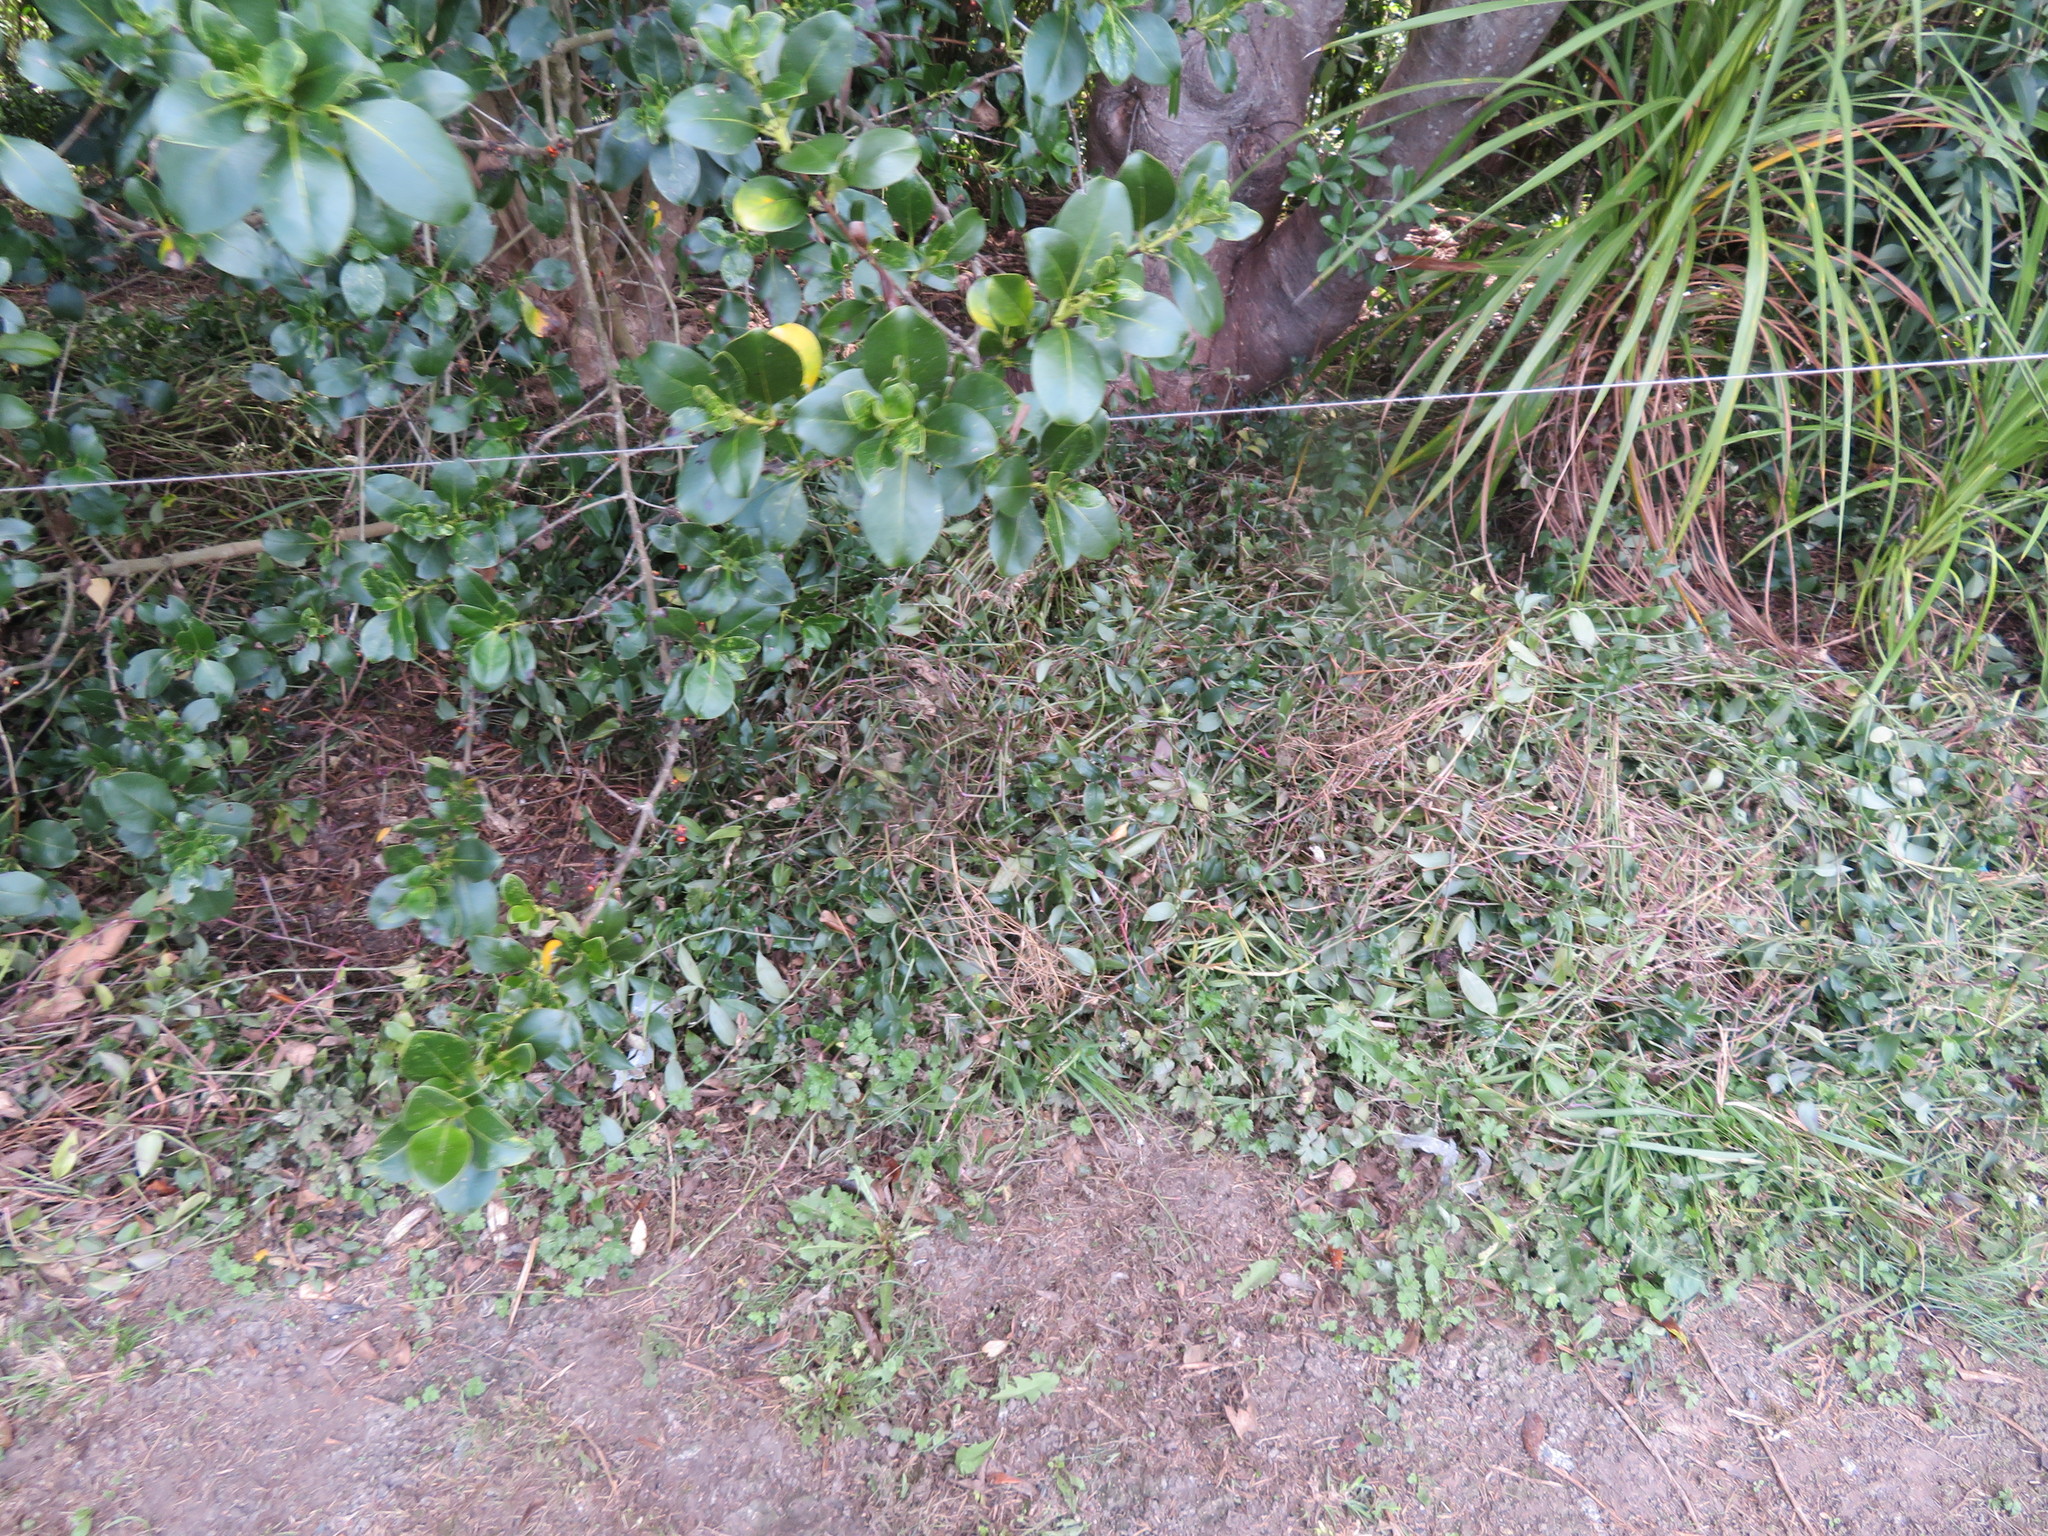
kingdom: Plantae
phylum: Tracheophyta
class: Liliopsida
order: Commelinales
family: Commelinaceae
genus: Tradescantia
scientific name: Tradescantia fluminensis
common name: Wandering-jew
